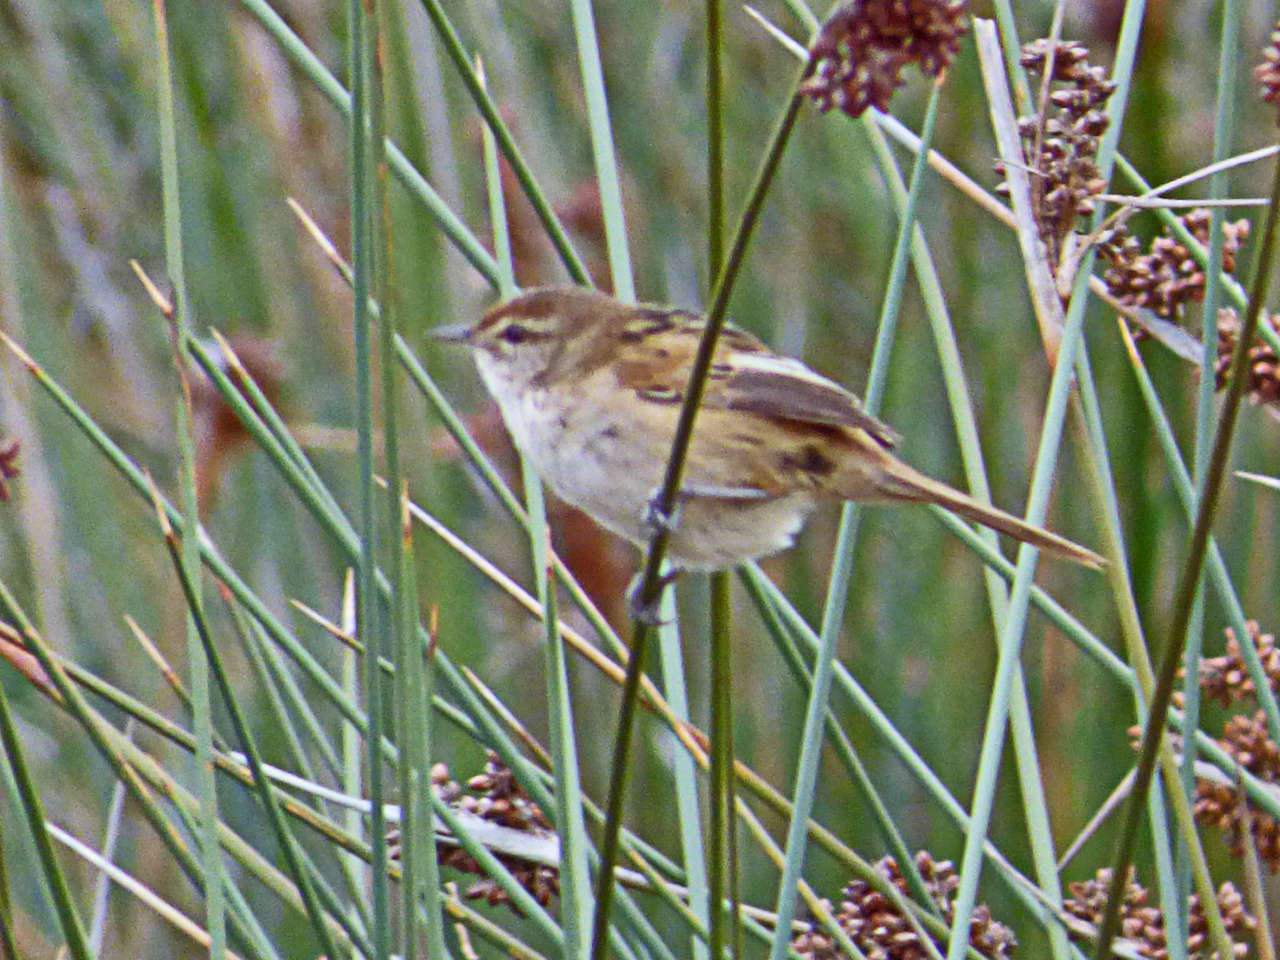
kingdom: Animalia
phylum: Chordata
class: Aves
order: Passeriformes
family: Locustellidae
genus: Megalurus
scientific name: Megalurus gramineus
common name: Little grassbird
